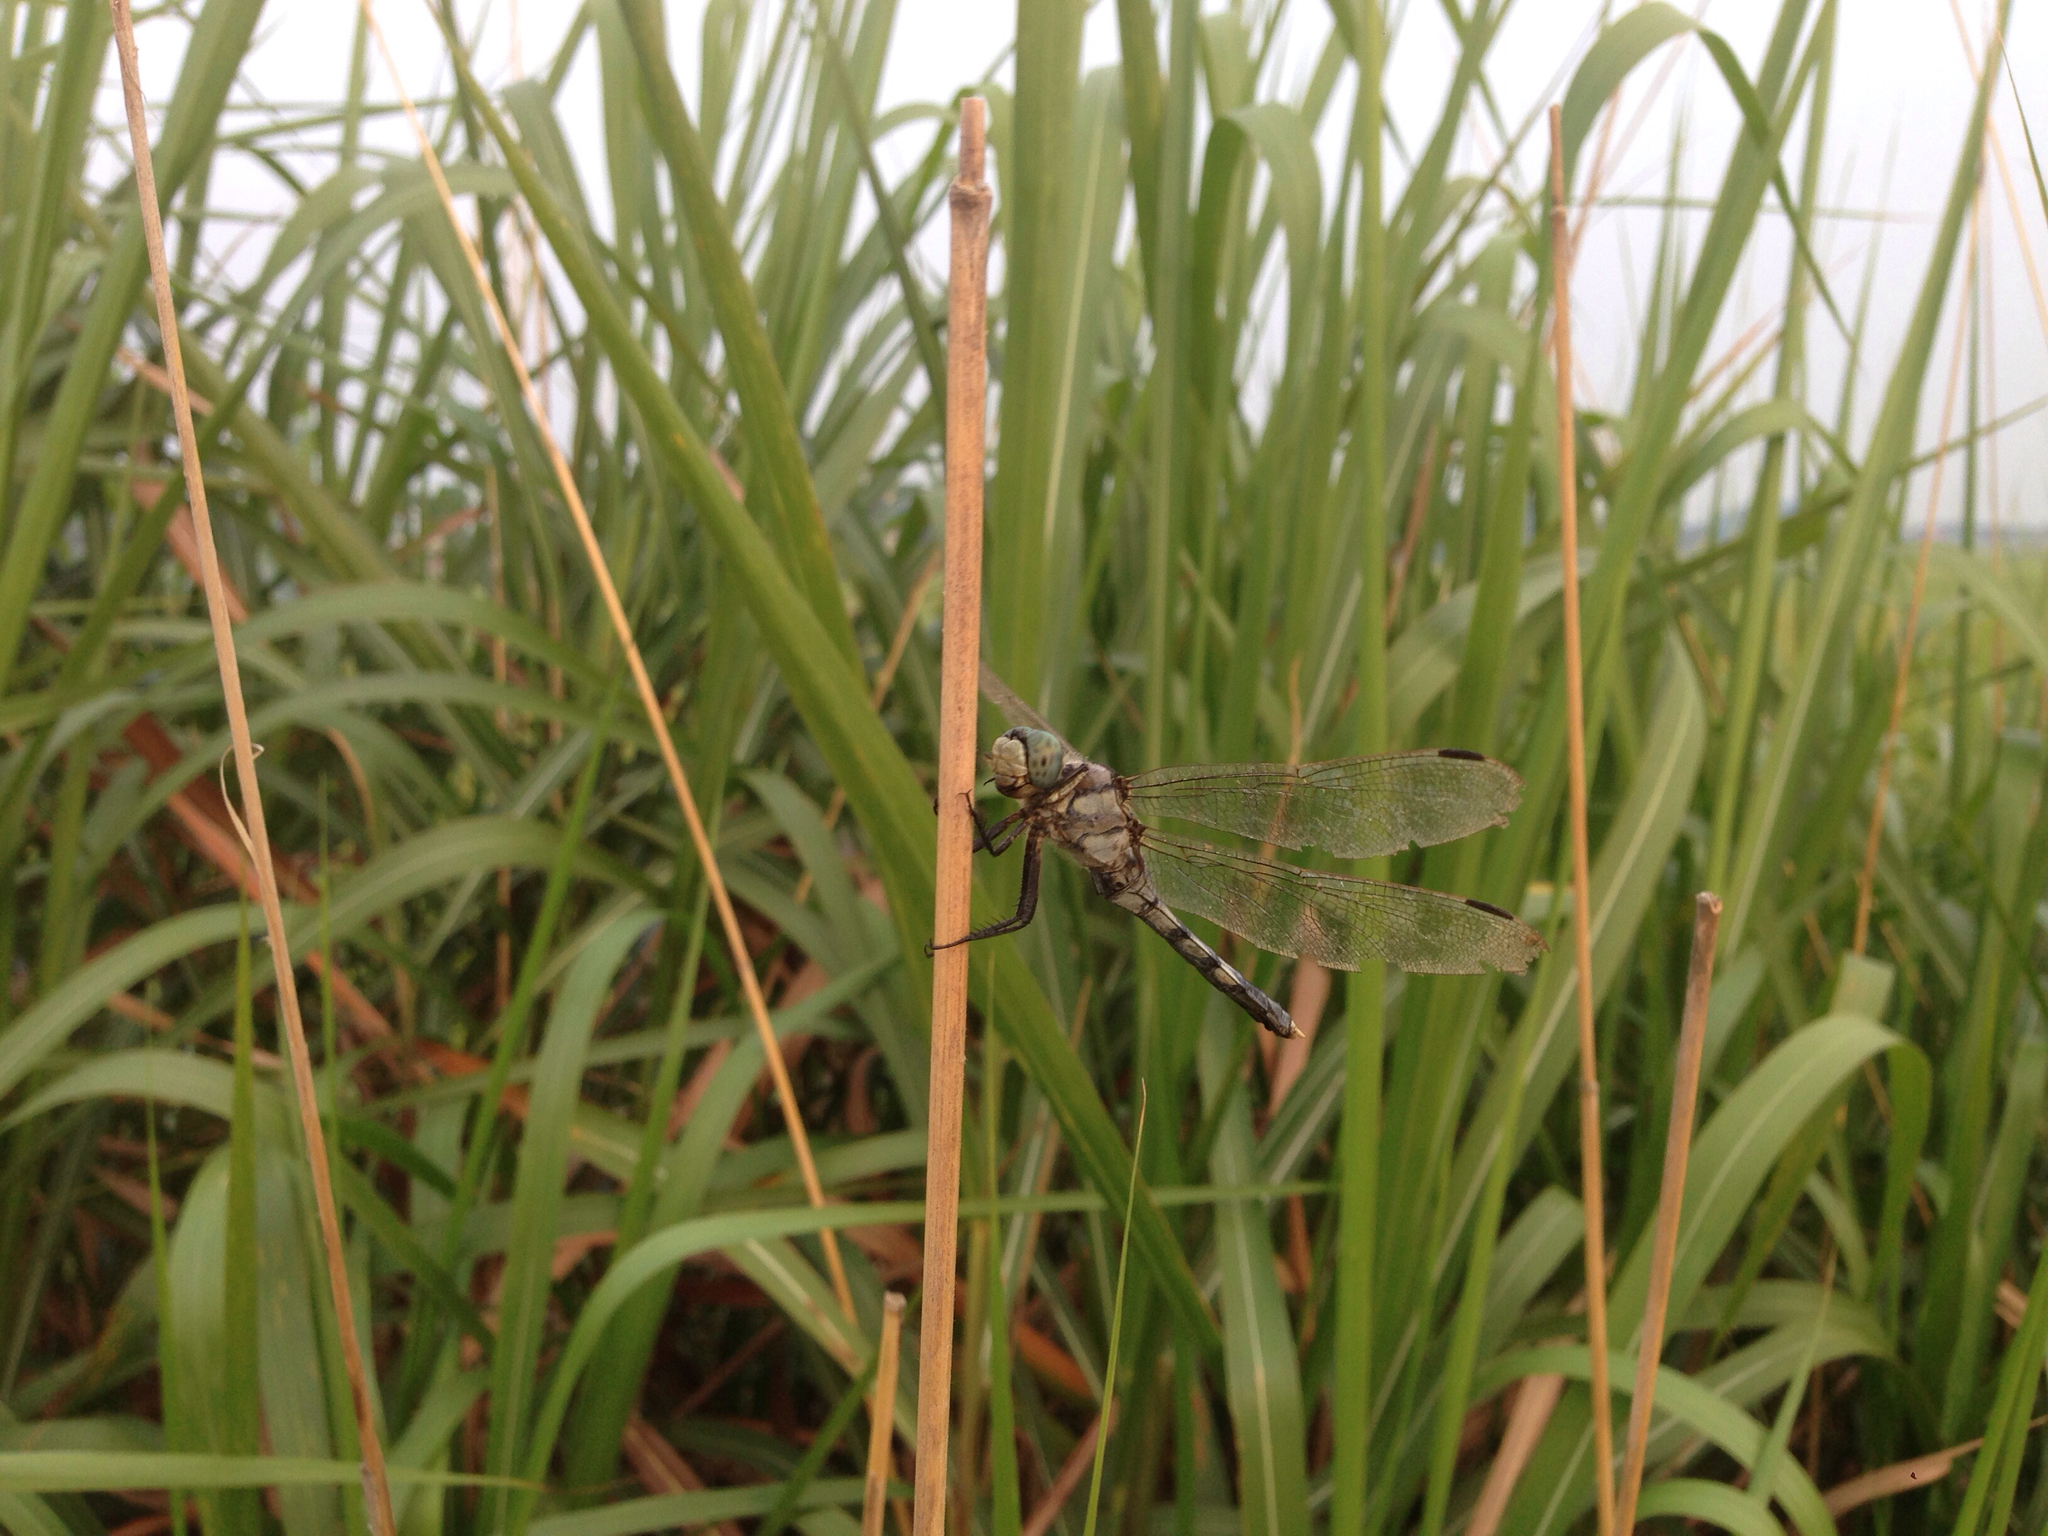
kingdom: Animalia
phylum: Arthropoda
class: Insecta
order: Odonata
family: Libellulidae
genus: Orthetrum
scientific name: Orthetrum albistylum
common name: White-tailed skimmer
